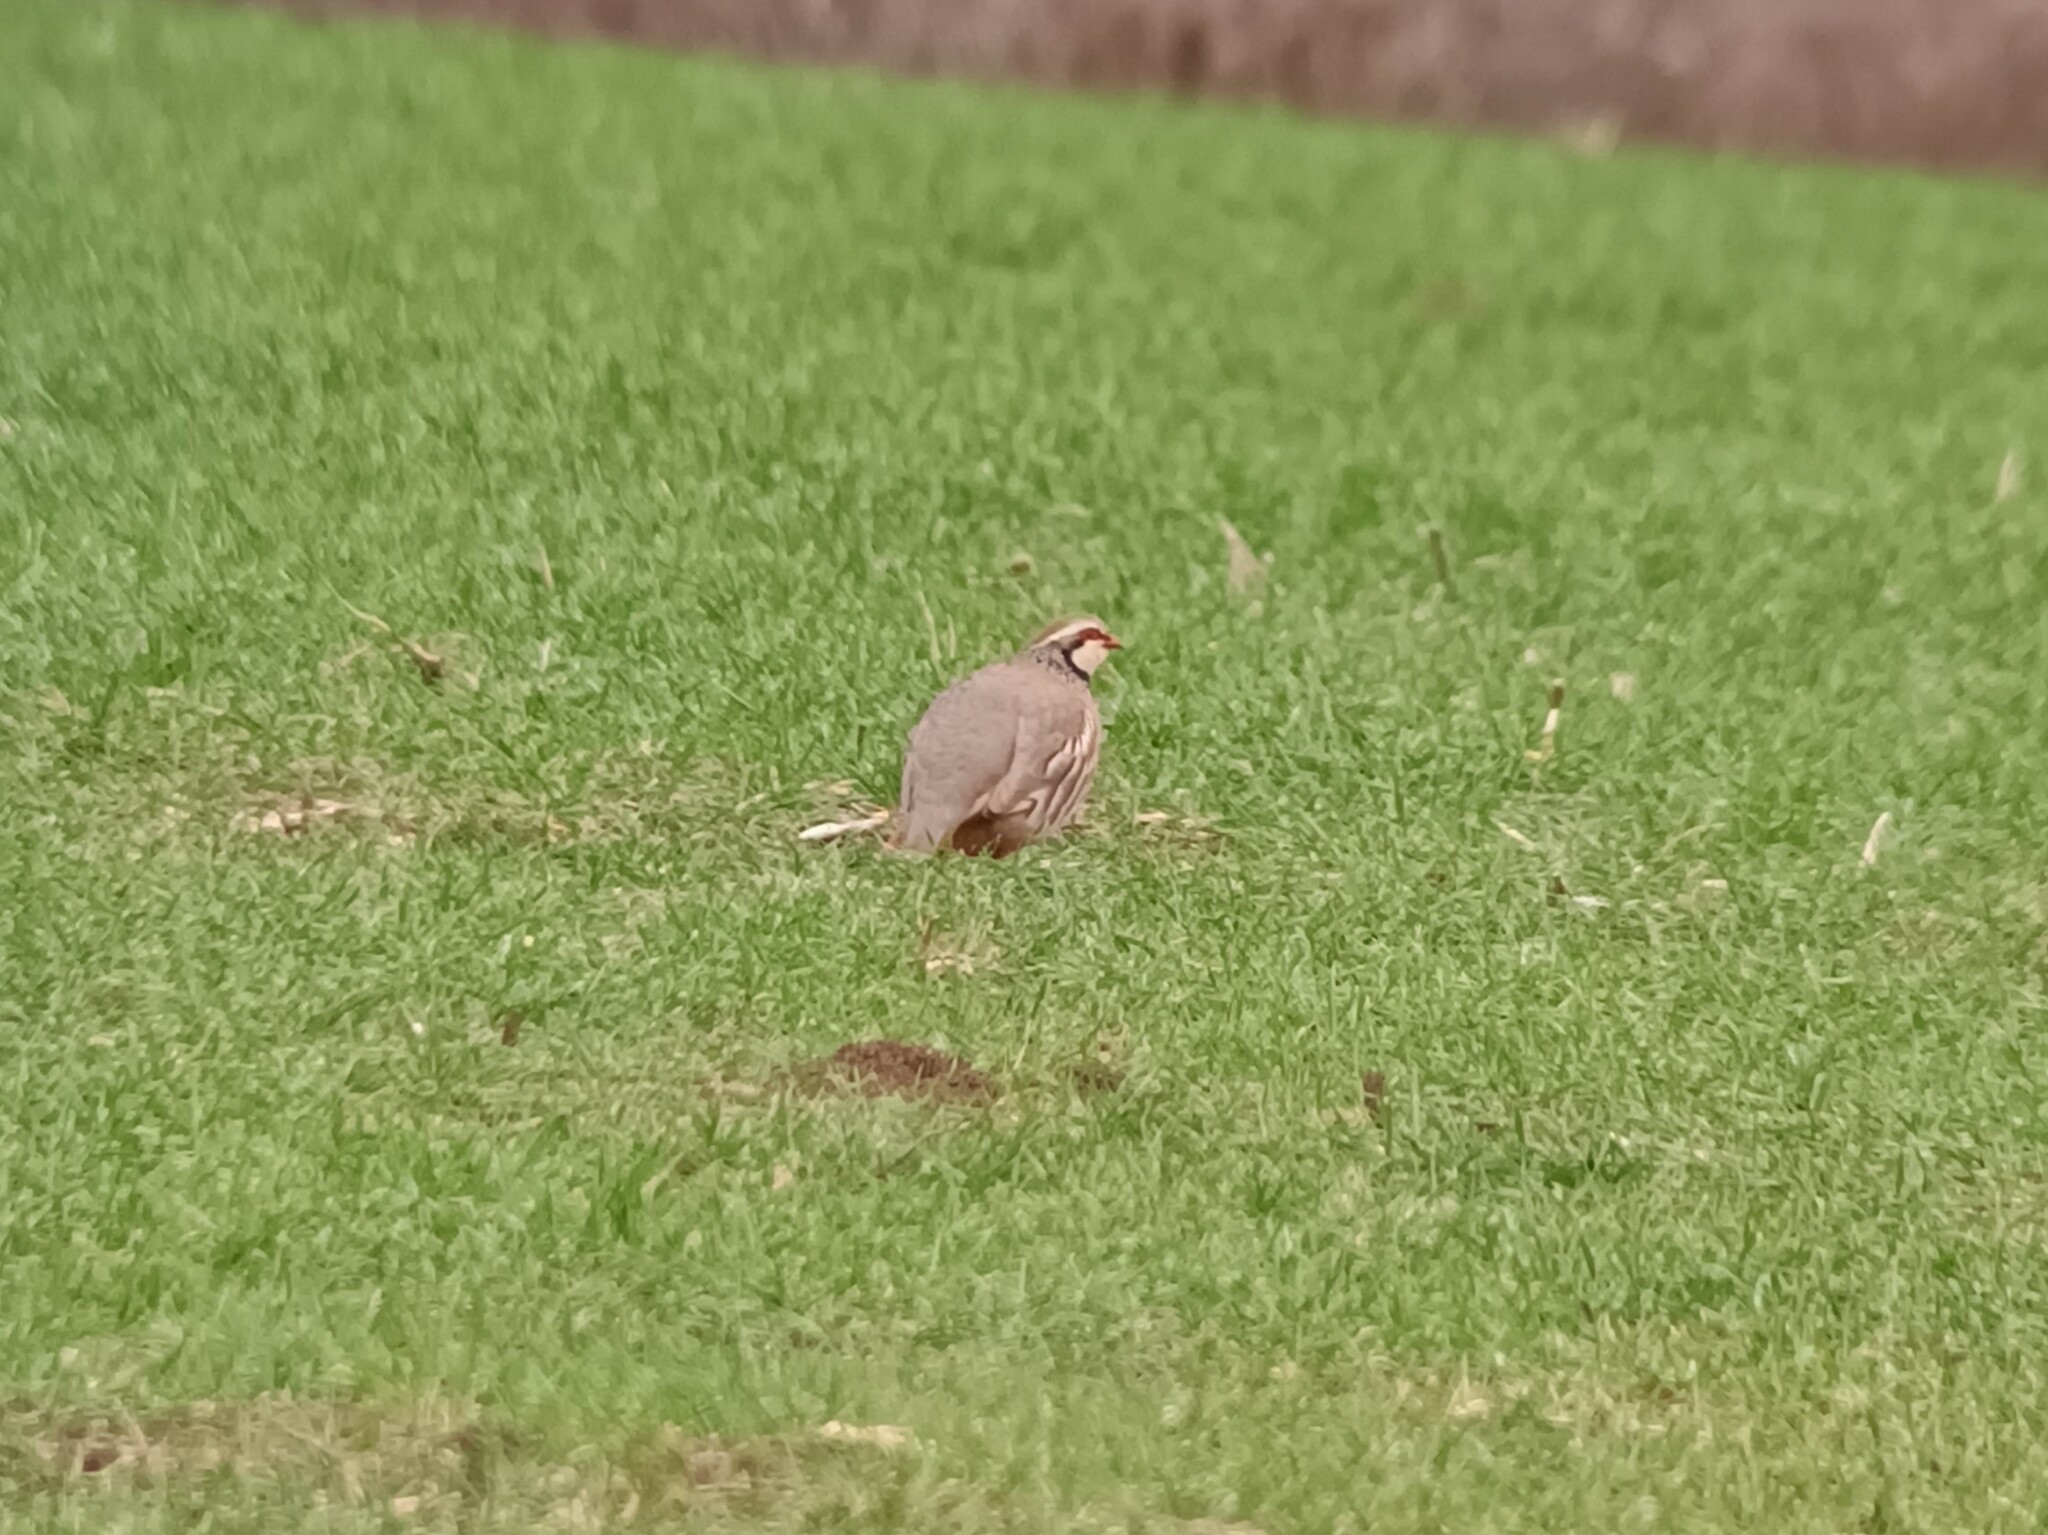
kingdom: Animalia
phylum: Chordata
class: Aves
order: Galliformes
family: Phasianidae
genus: Alectoris
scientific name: Alectoris rufa
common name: Red-legged partridge
